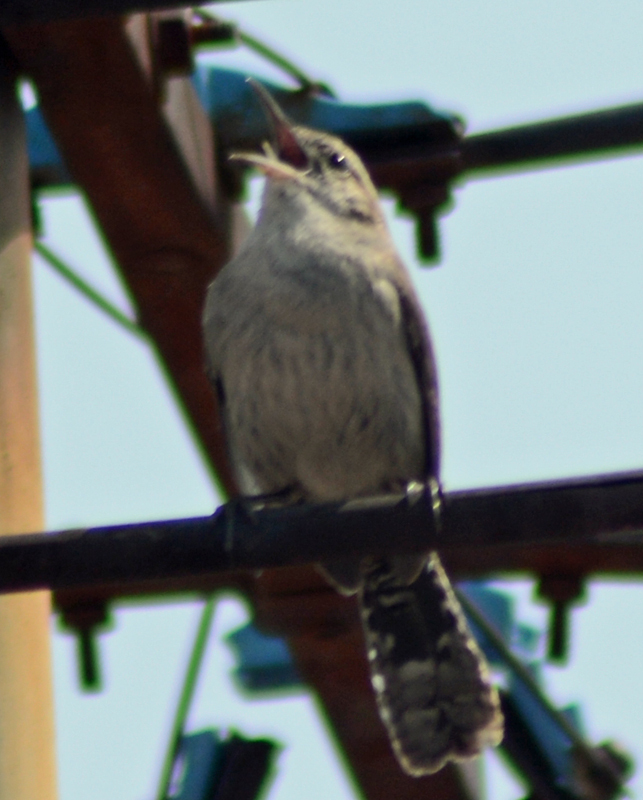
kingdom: Animalia
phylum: Chordata
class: Aves
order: Passeriformes
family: Troglodytidae
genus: Thryomanes
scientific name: Thryomanes bewickii
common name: Bewick's wren
